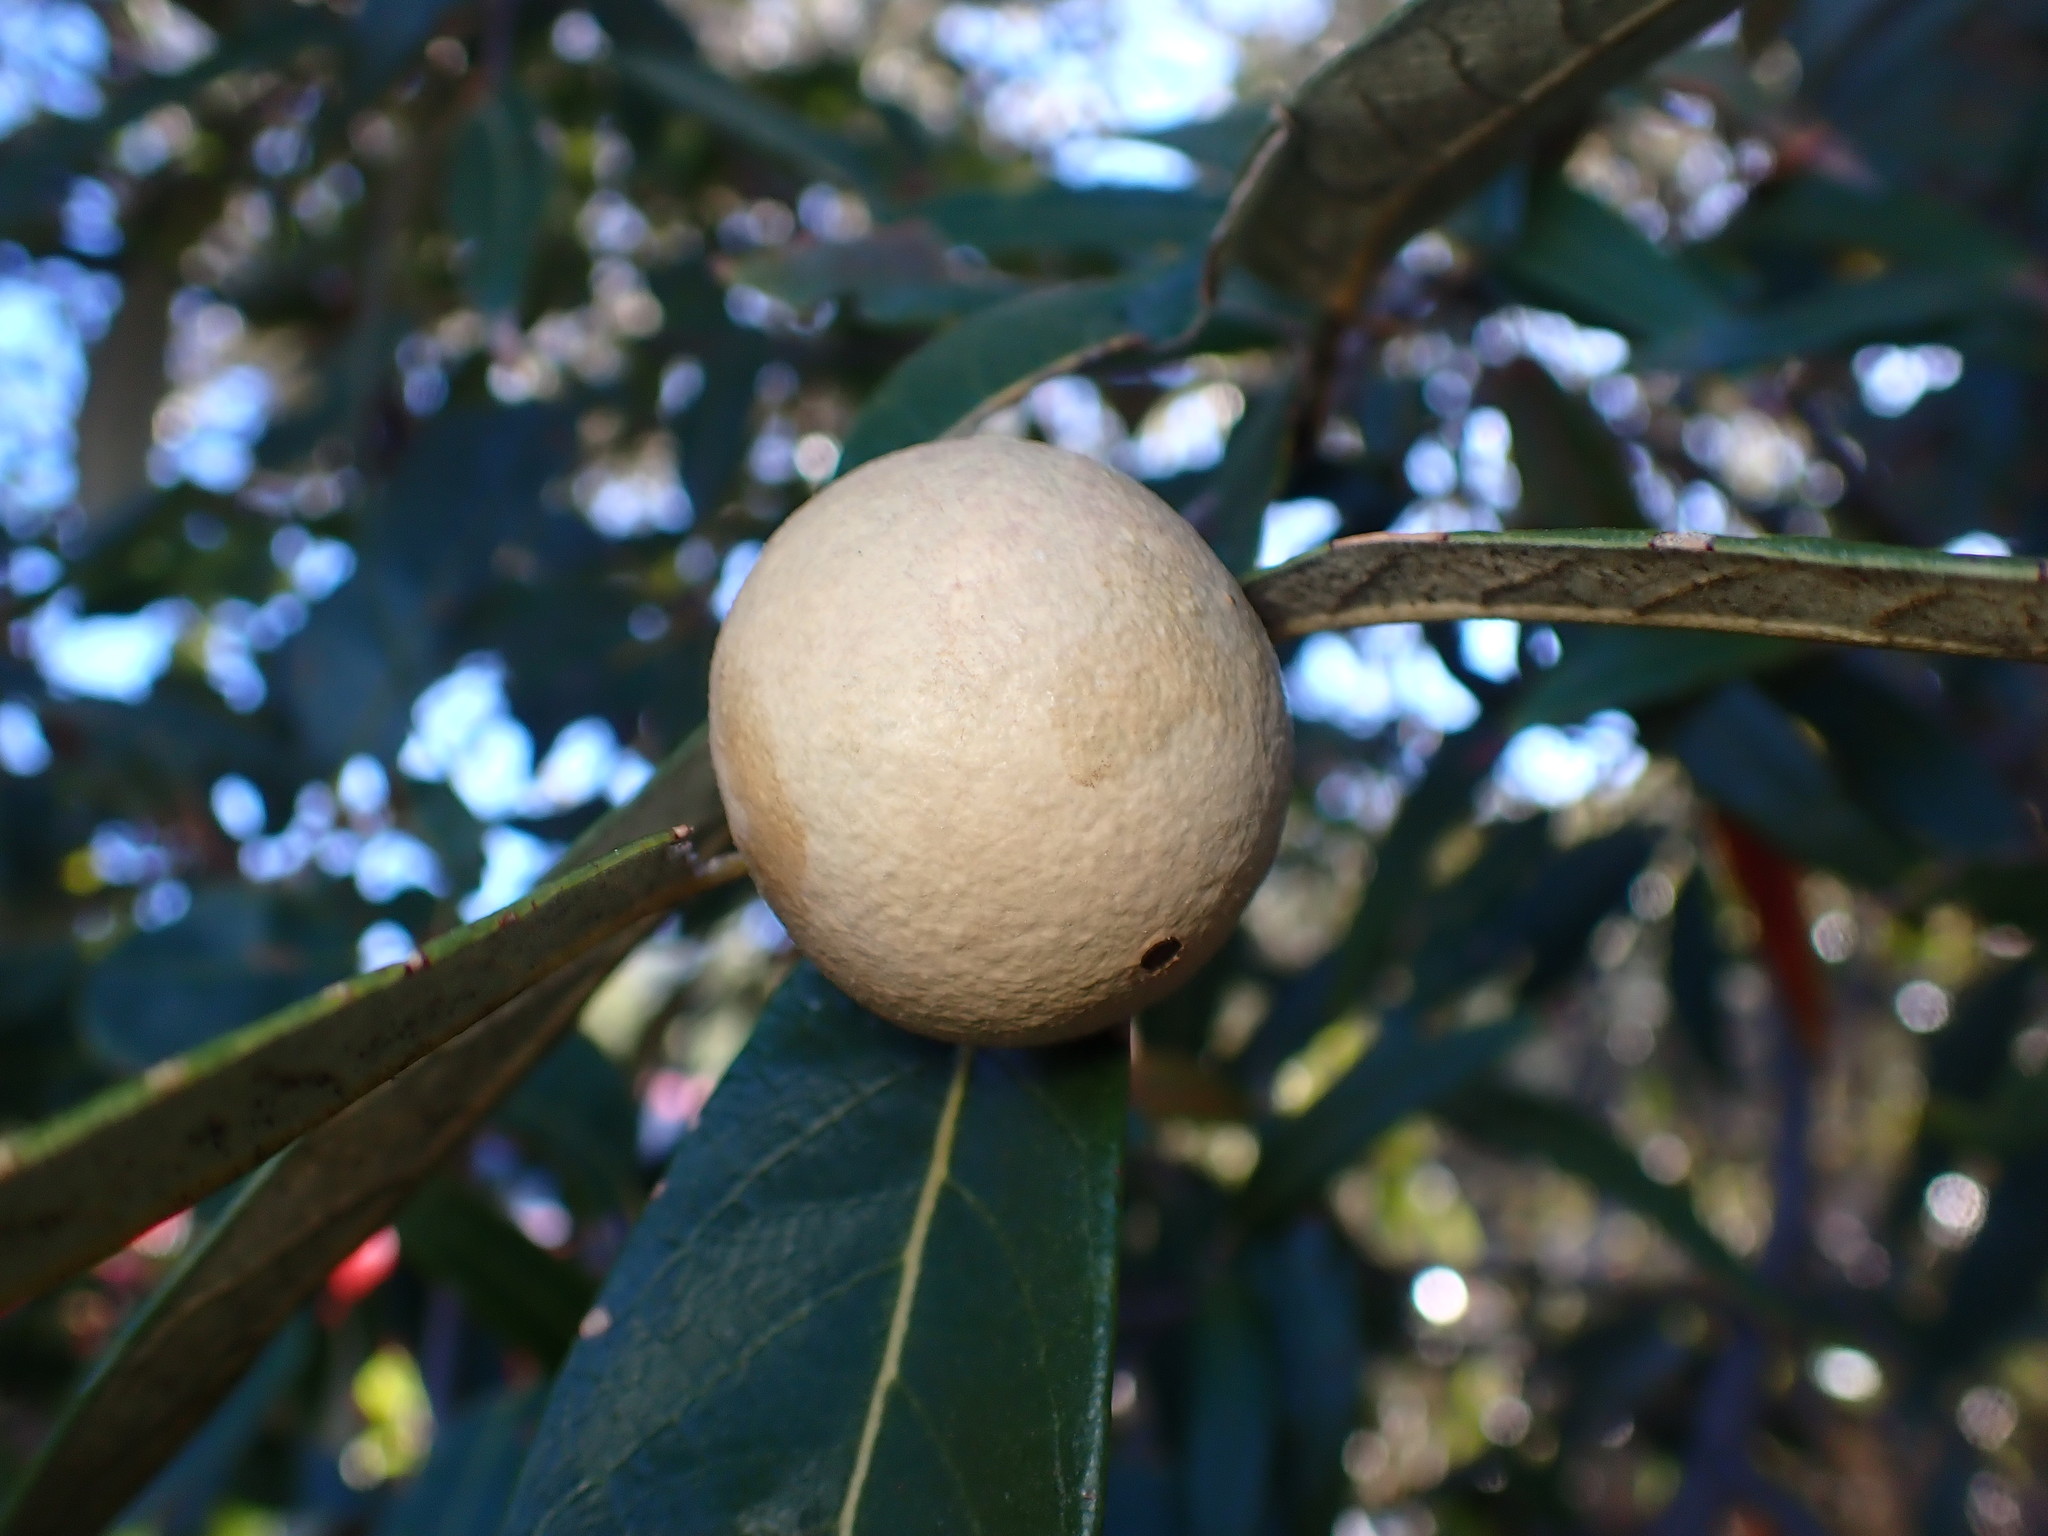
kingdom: Animalia
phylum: Arthropoda
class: Insecta
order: Hymenoptera
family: Cynipidae
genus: Amphibolips
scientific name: Amphibolips
